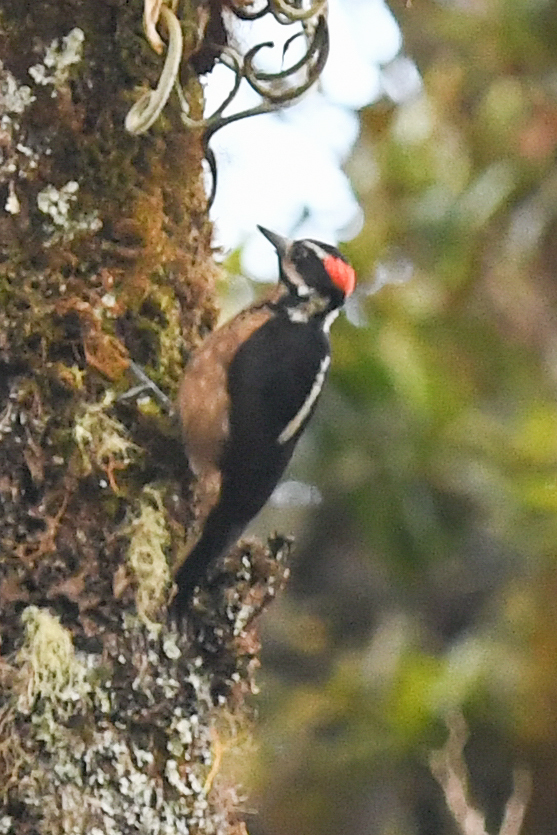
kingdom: Animalia
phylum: Chordata
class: Aves
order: Piciformes
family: Picidae
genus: Leuconotopicus
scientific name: Leuconotopicus villosus
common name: Hairy woodpecker
